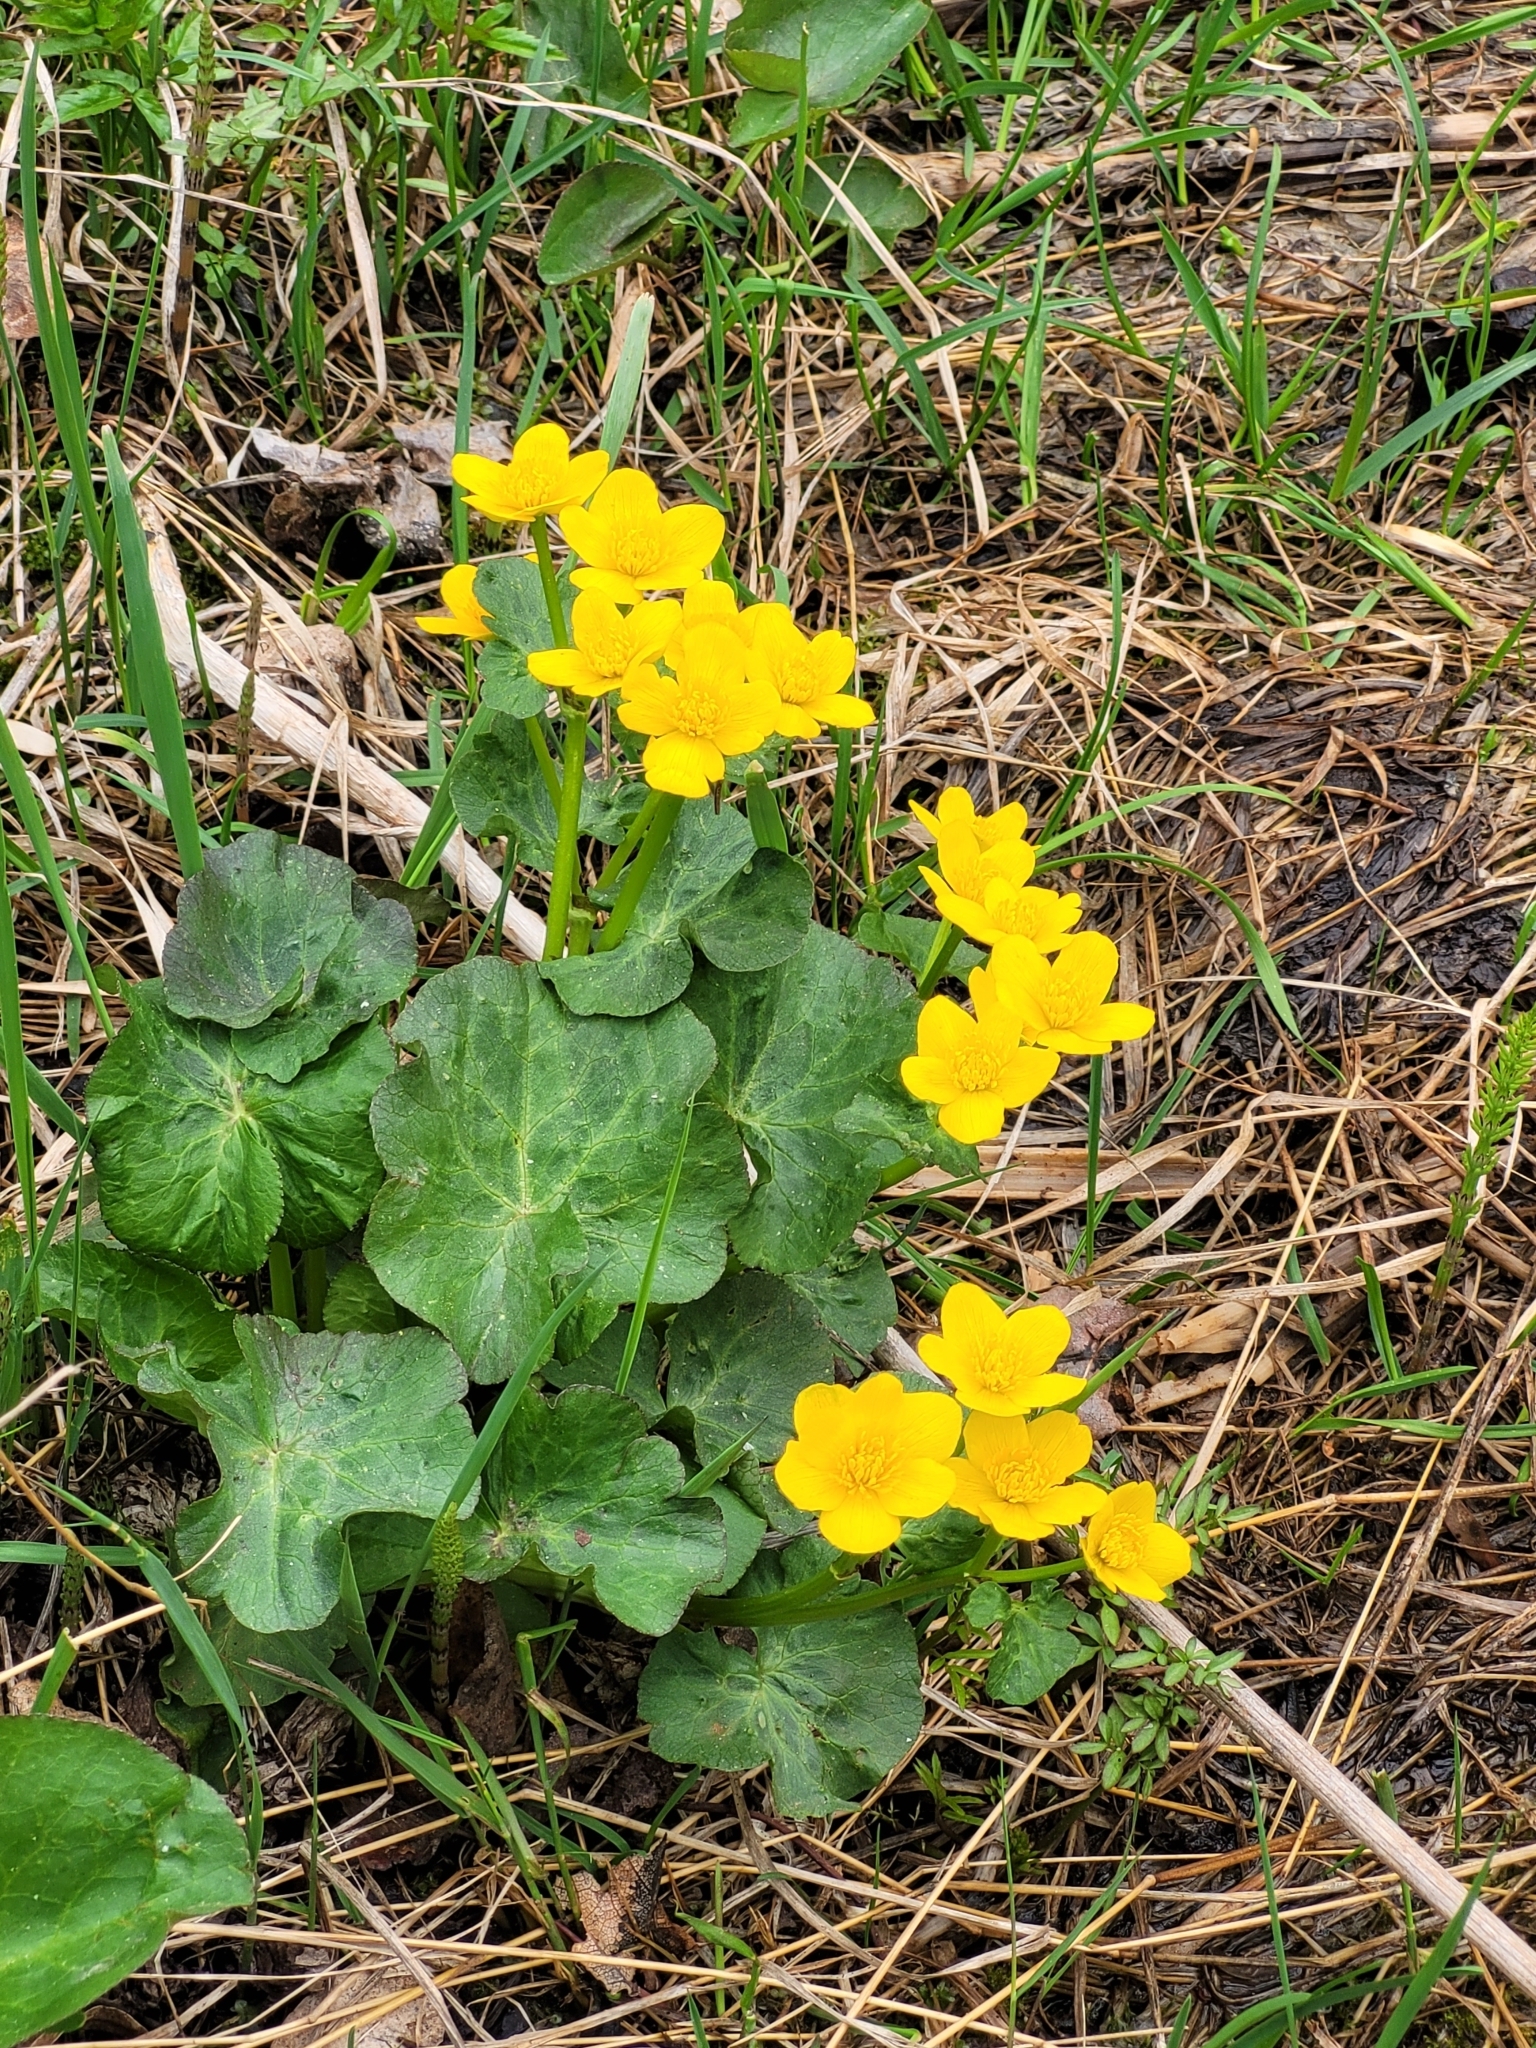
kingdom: Plantae
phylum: Tracheophyta
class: Magnoliopsida
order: Ranunculales
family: Ranunculaceae
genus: Caltha
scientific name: Caltha palustris
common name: Marsh marigold
